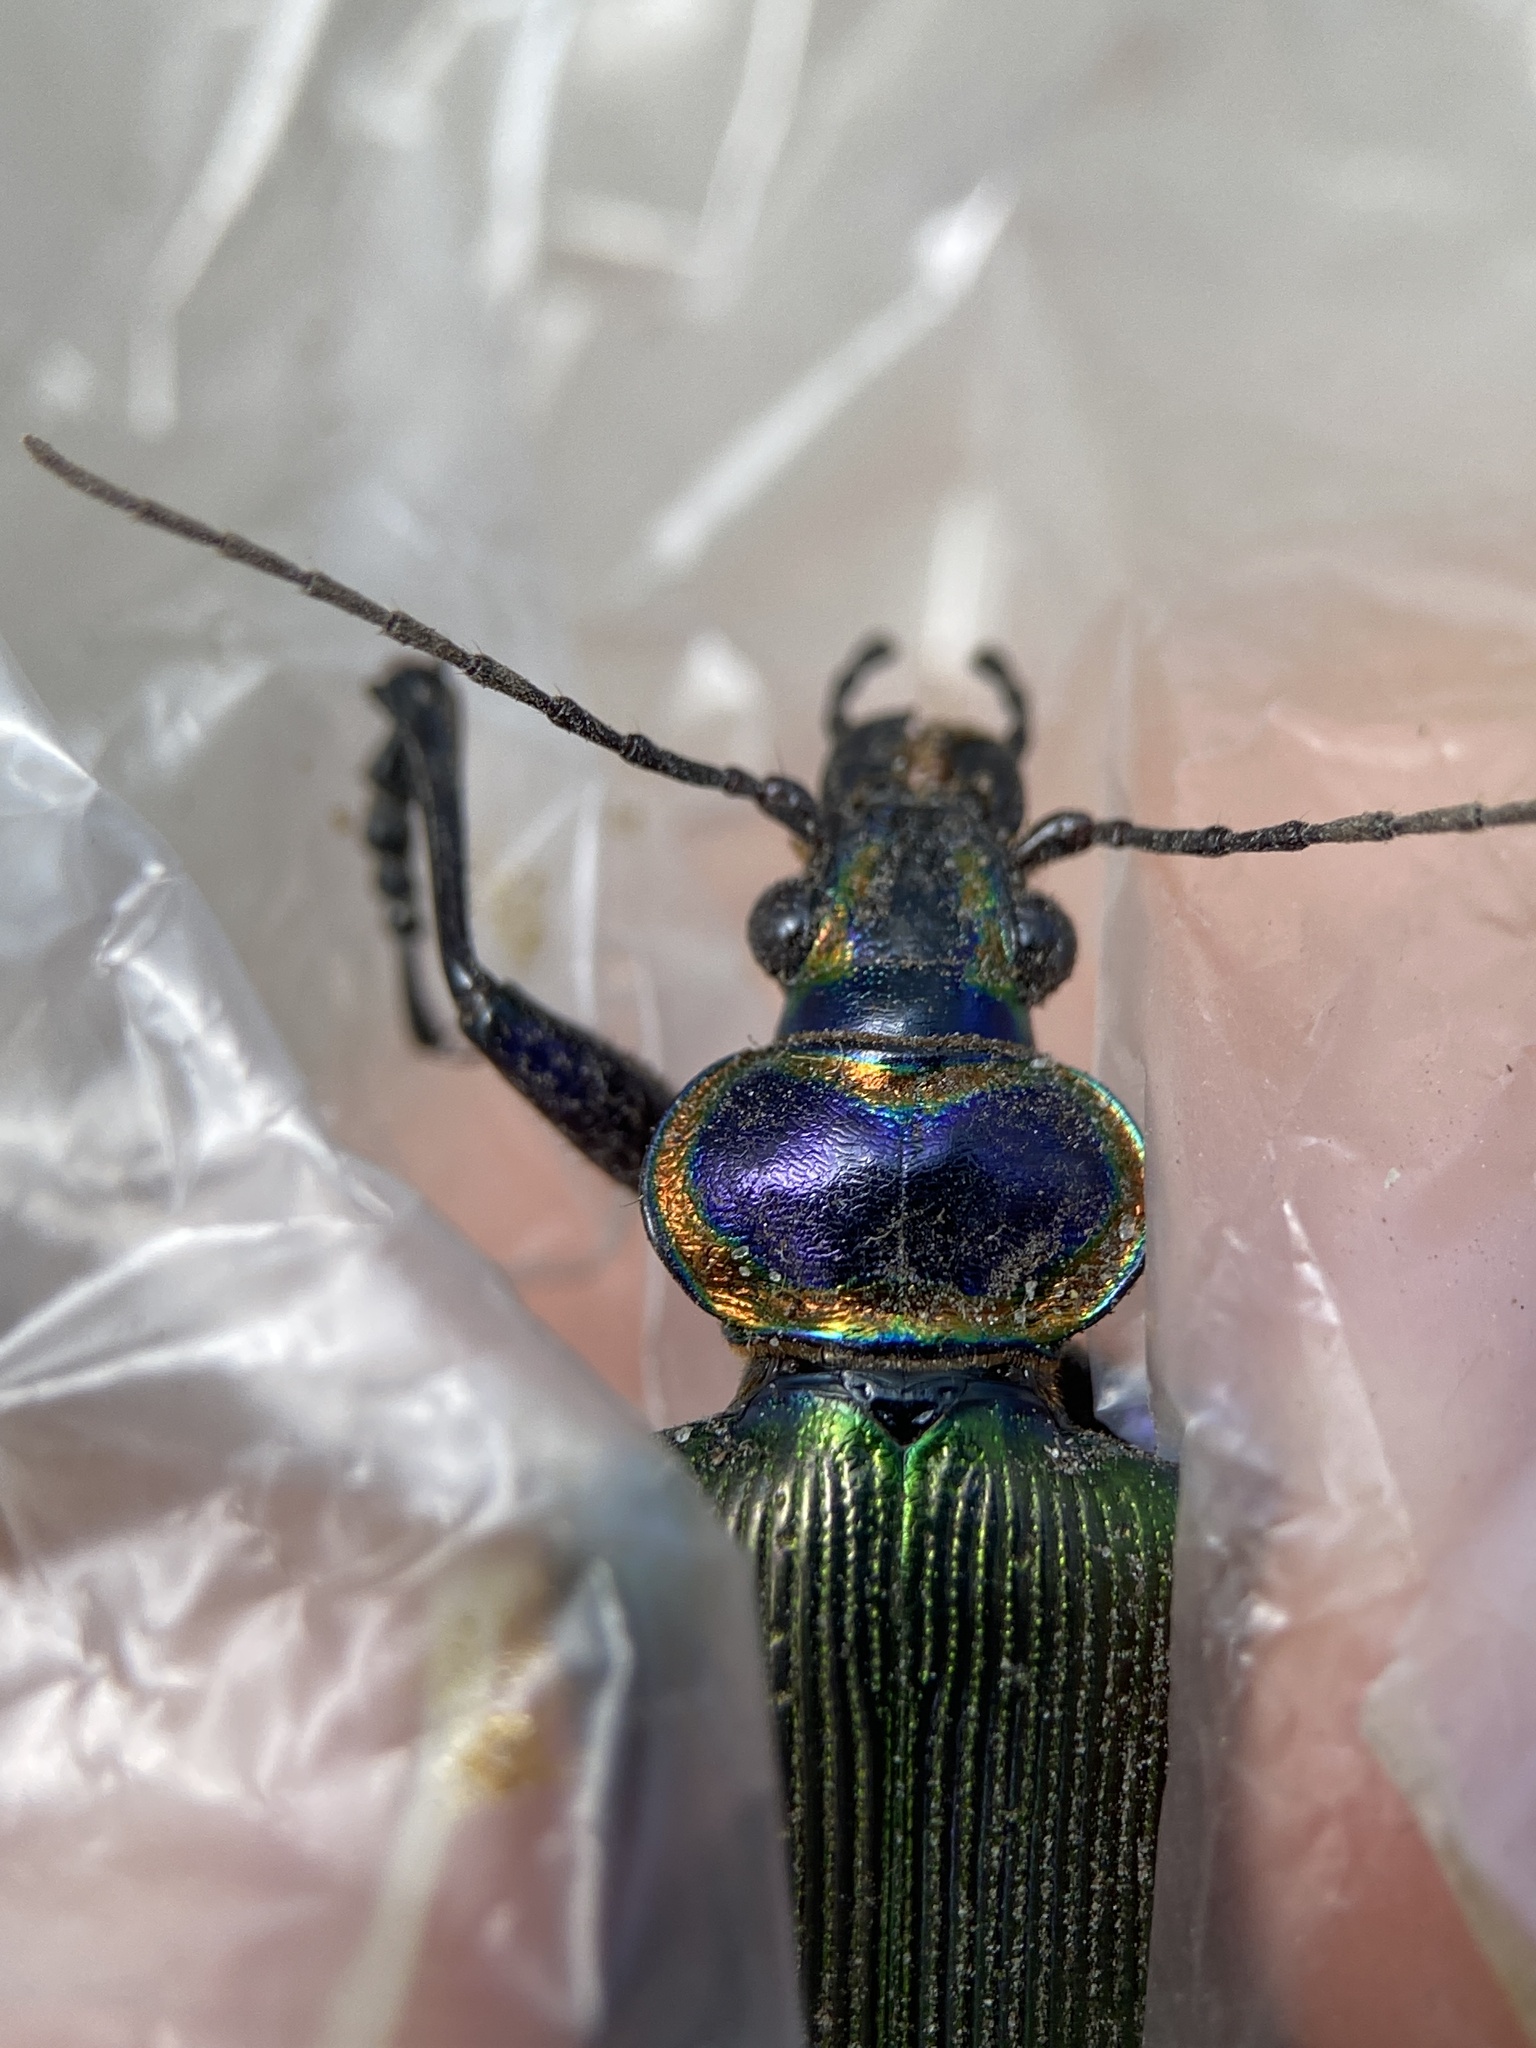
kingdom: Animalia
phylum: Arthropoda
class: Insecta
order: Coleoptera
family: Carabidae
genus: Calosoma
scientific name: Calosoma scrutator
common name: Fiery searcher beetle
